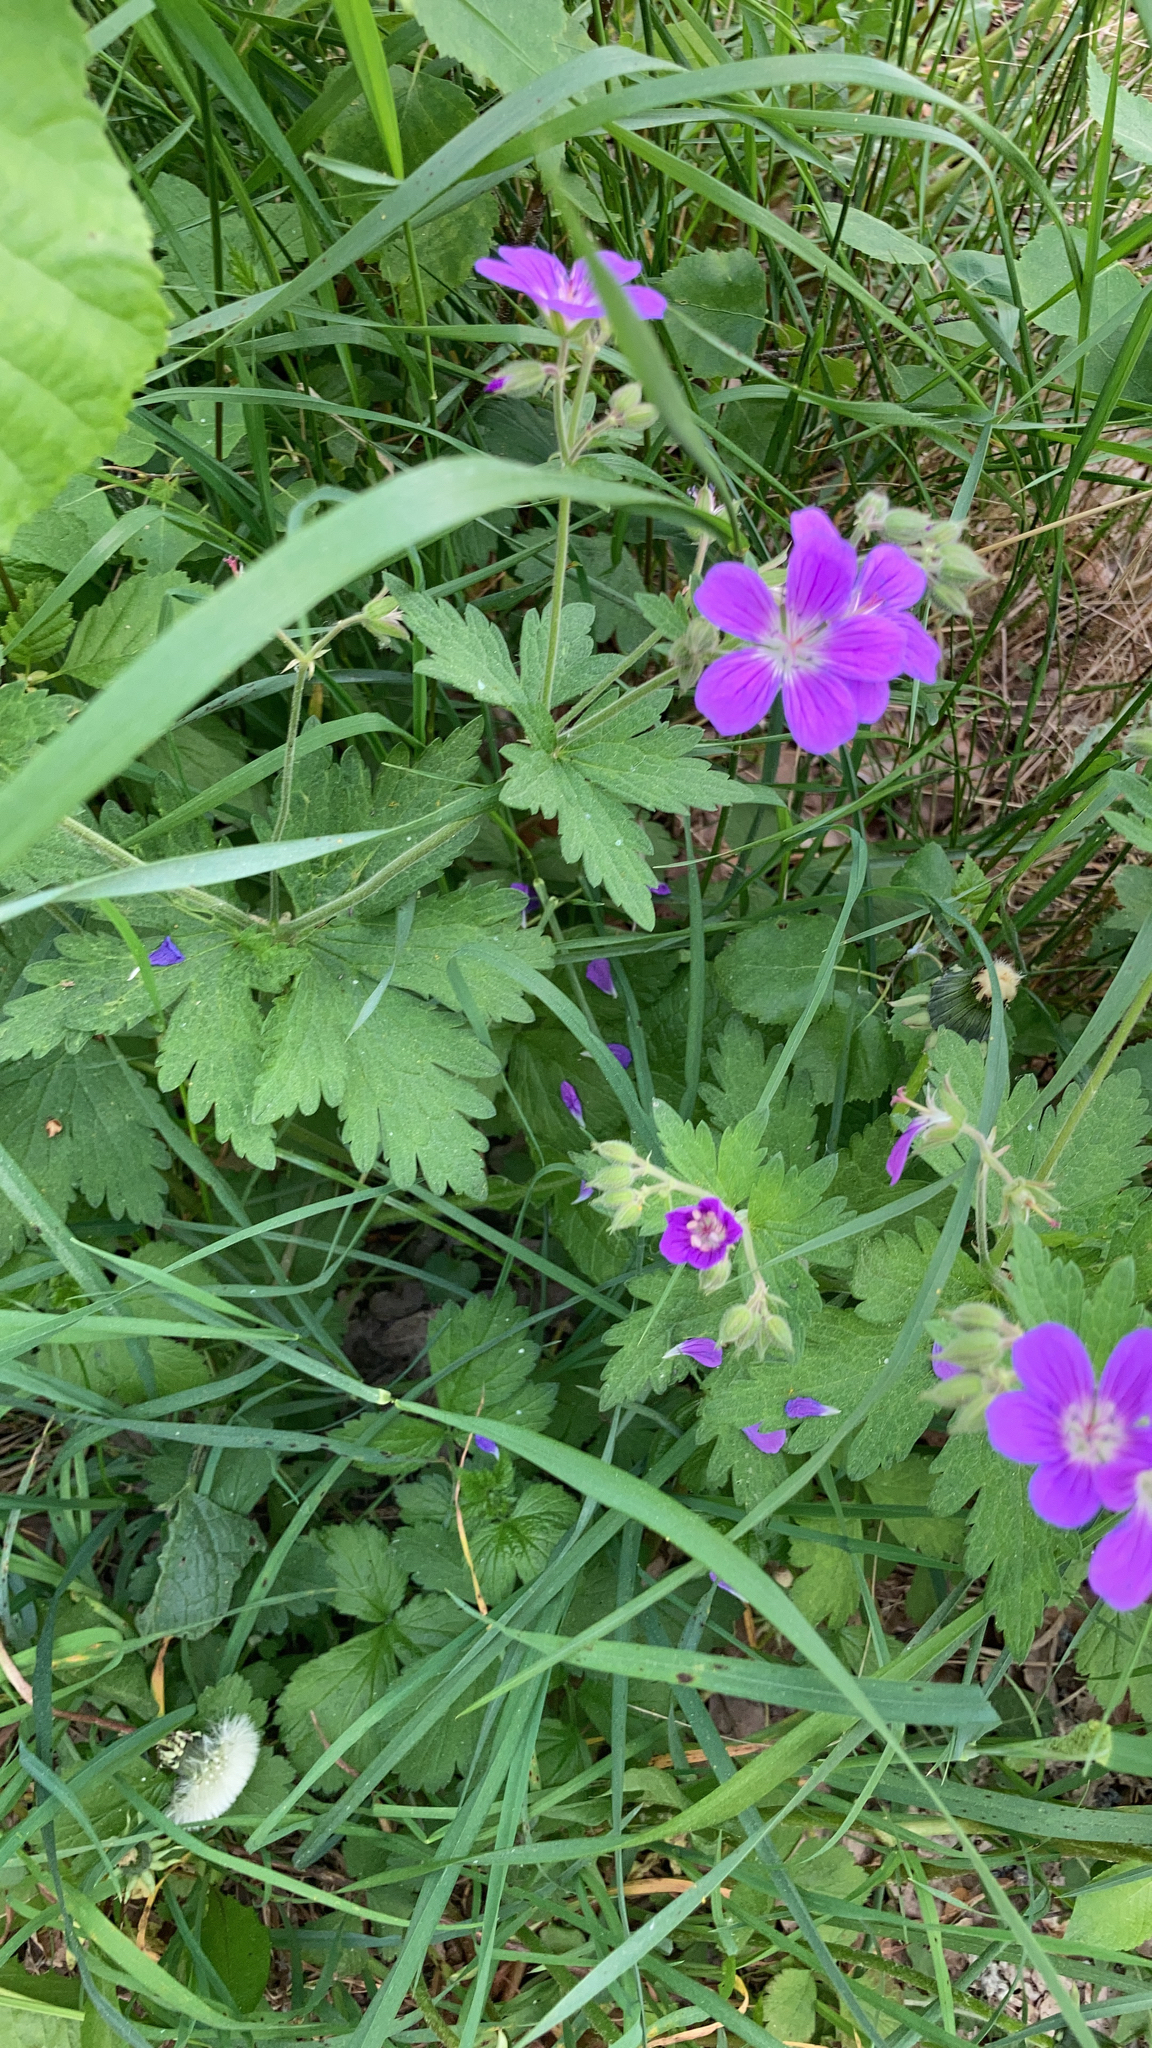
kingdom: Plantae
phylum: Tracheophyta
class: Magnoliopsida
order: Geraniales
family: Geraniaceae
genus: Geranium
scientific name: Geranium sylvaticum
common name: Wood crane's-bill
